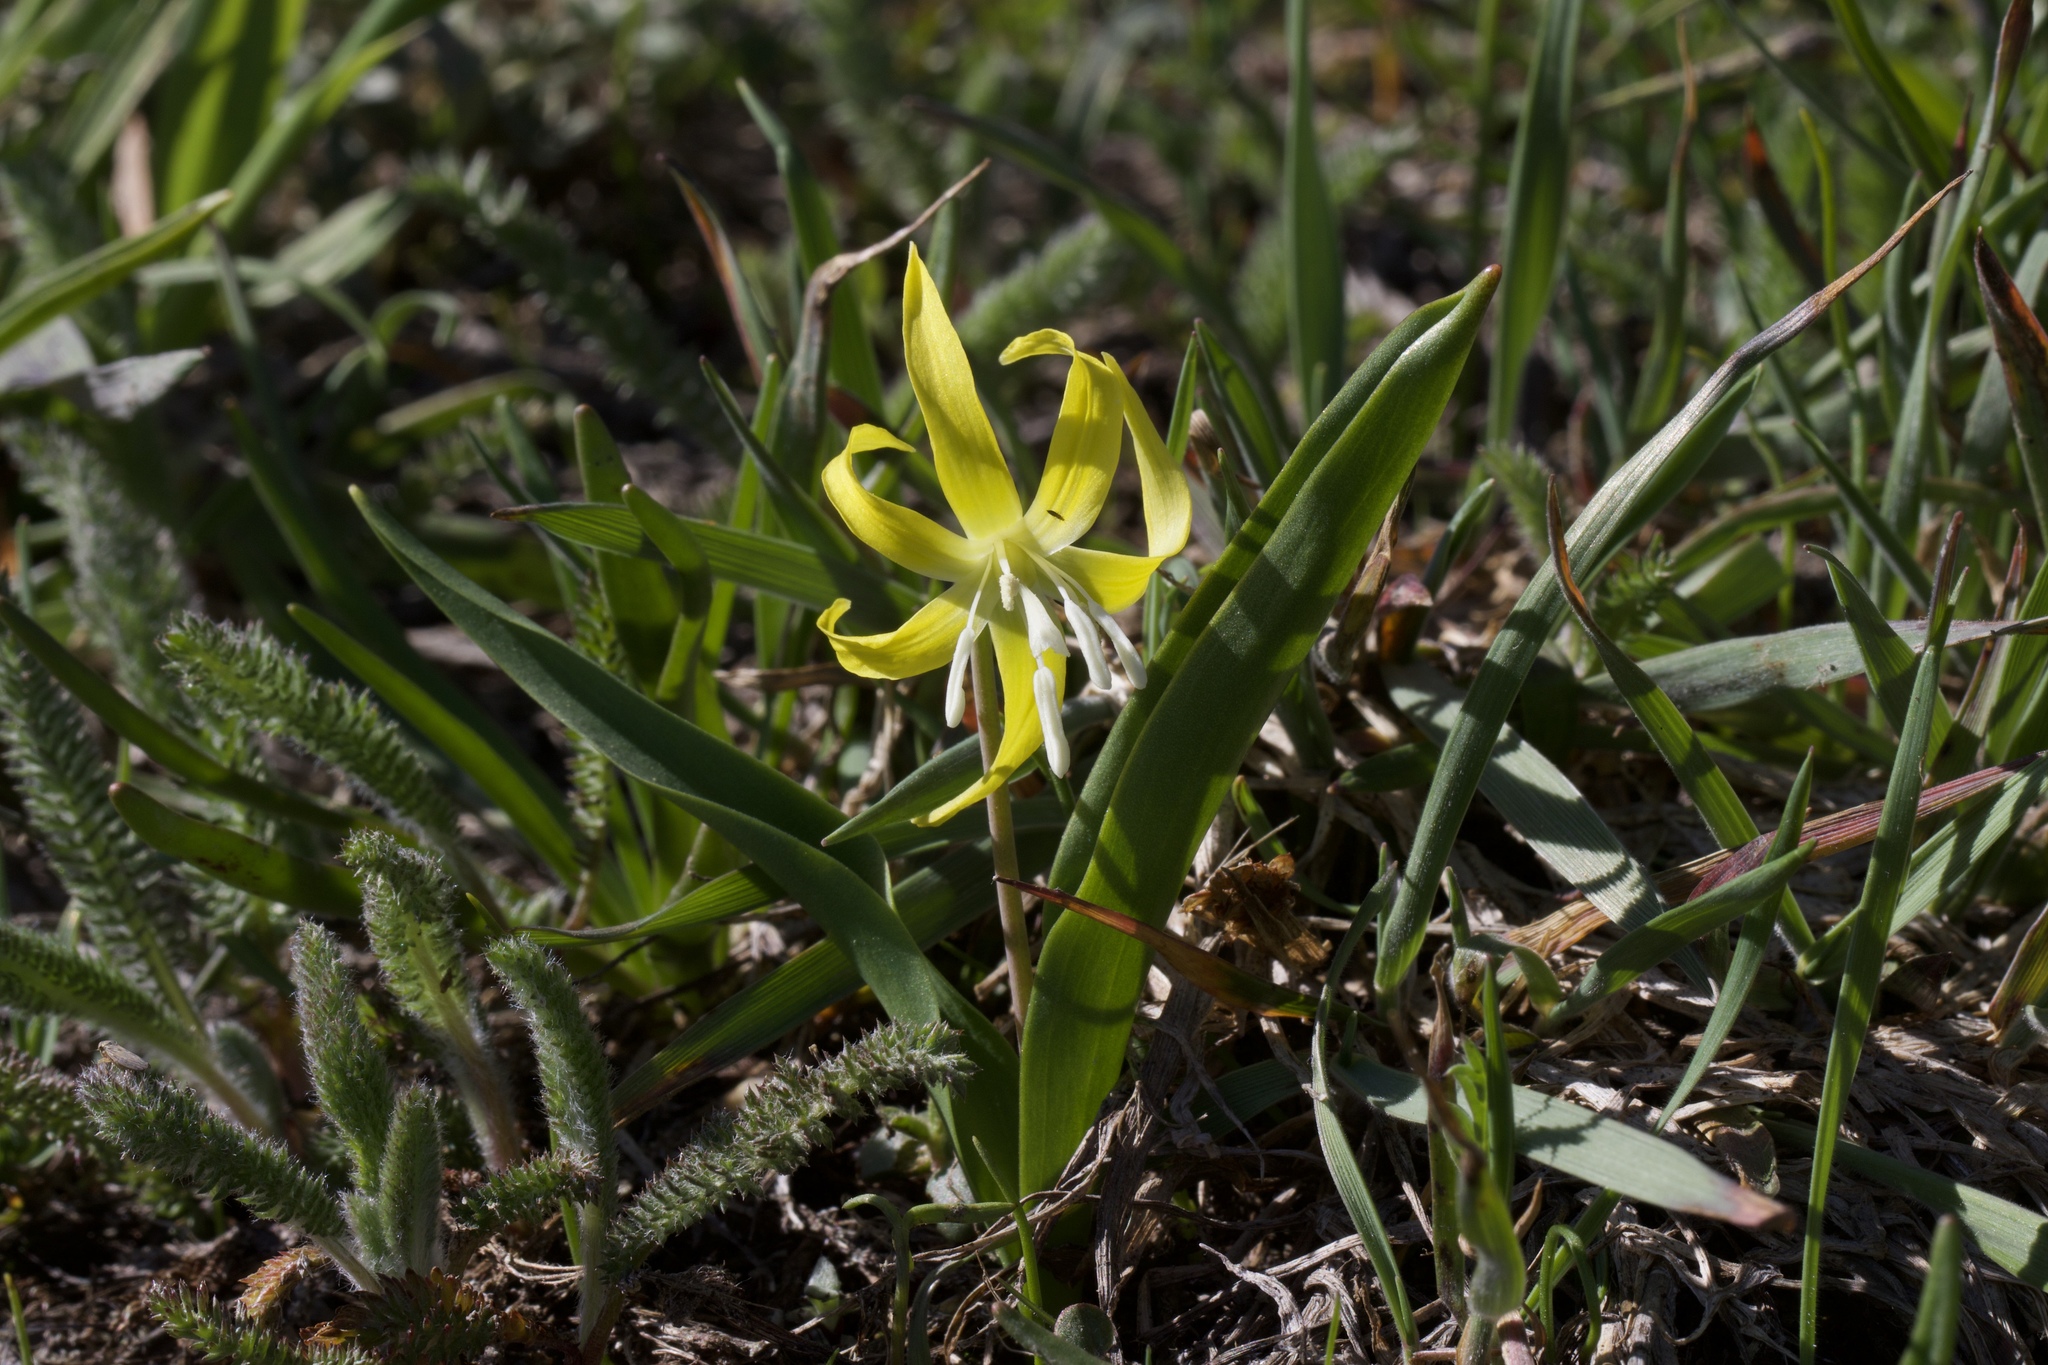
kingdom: Plantae
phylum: Tracheophyta
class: Liliopsida
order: Liliales
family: Liliaceae
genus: Erythronium
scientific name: Erythronium grandiflorum
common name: Avalanche-lily
